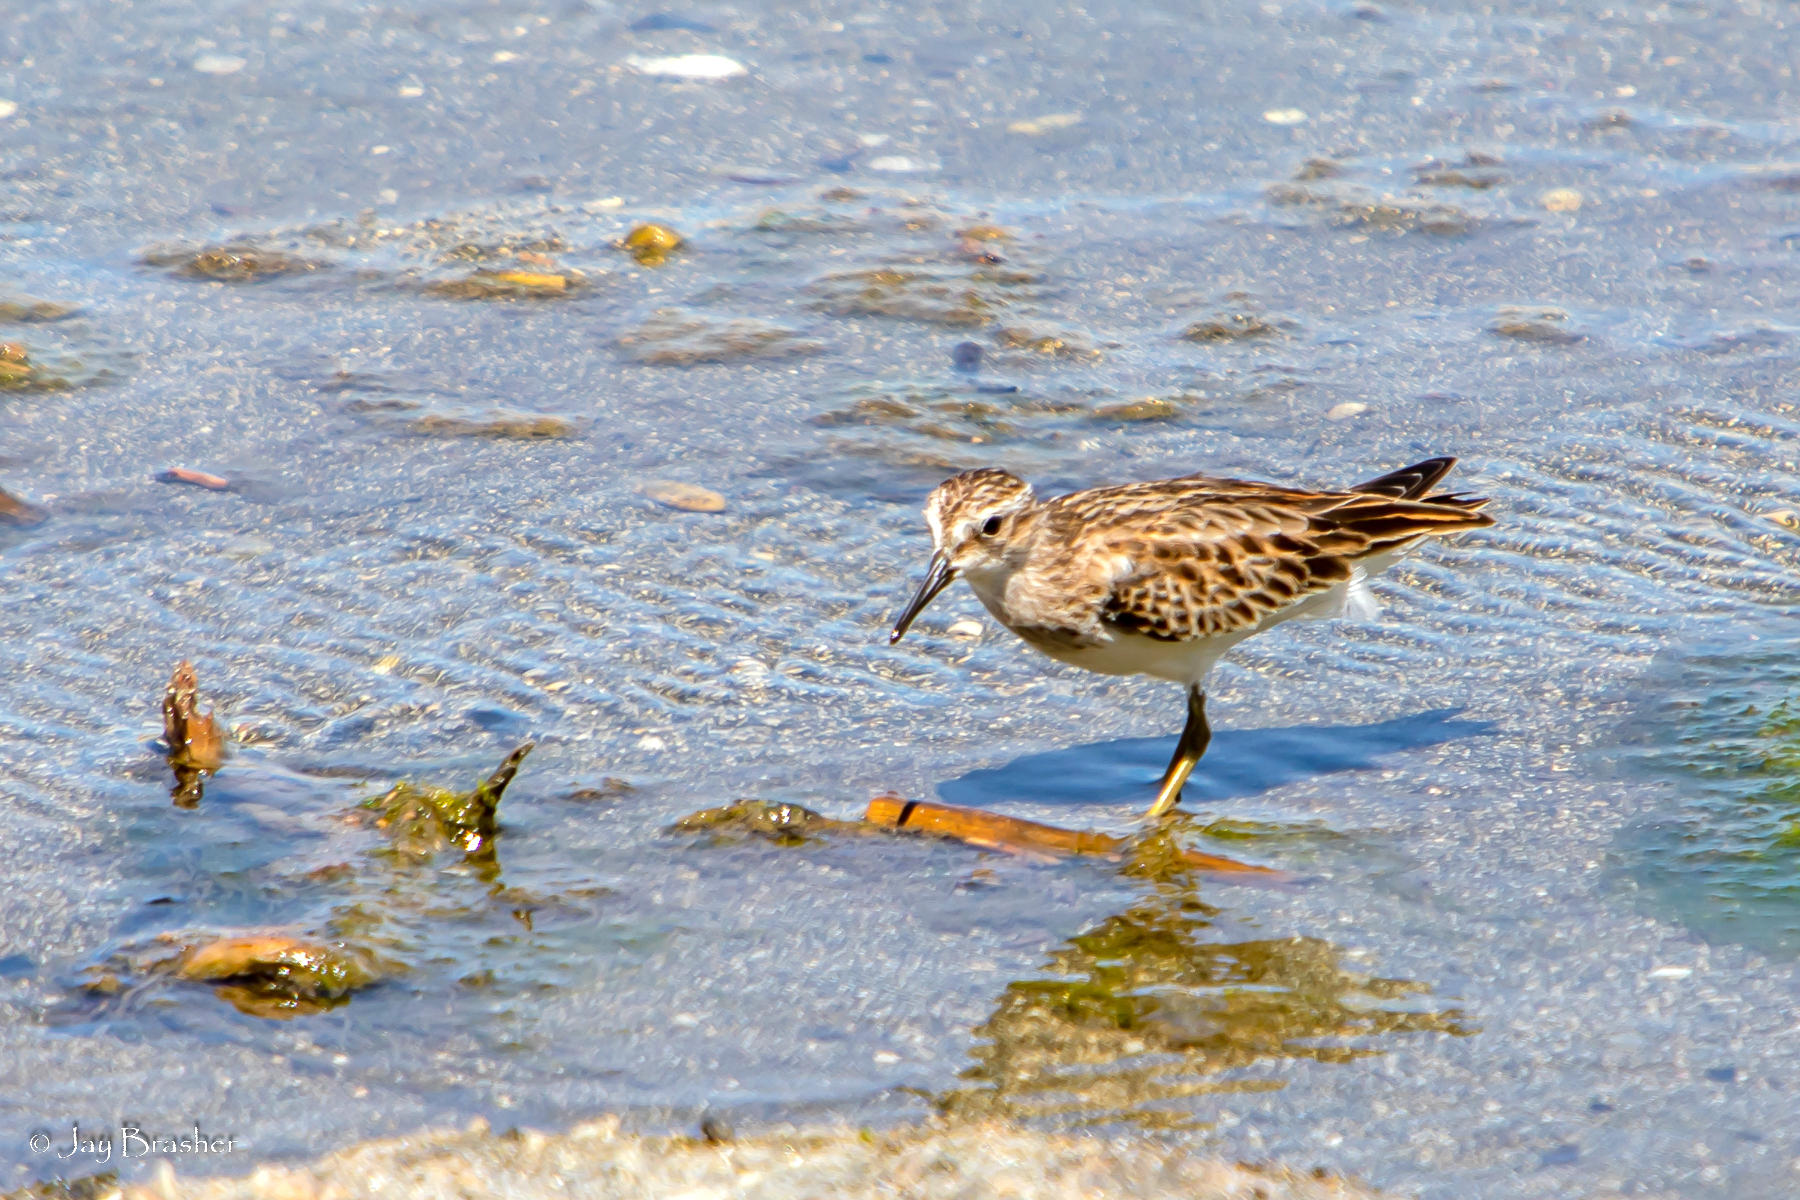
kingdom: Animalia
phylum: Chordata
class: Aves
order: Charadriiformes
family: Scolopacidae
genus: Calidris
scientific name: Calidris pusilla
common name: Semipalmated sandpiper
